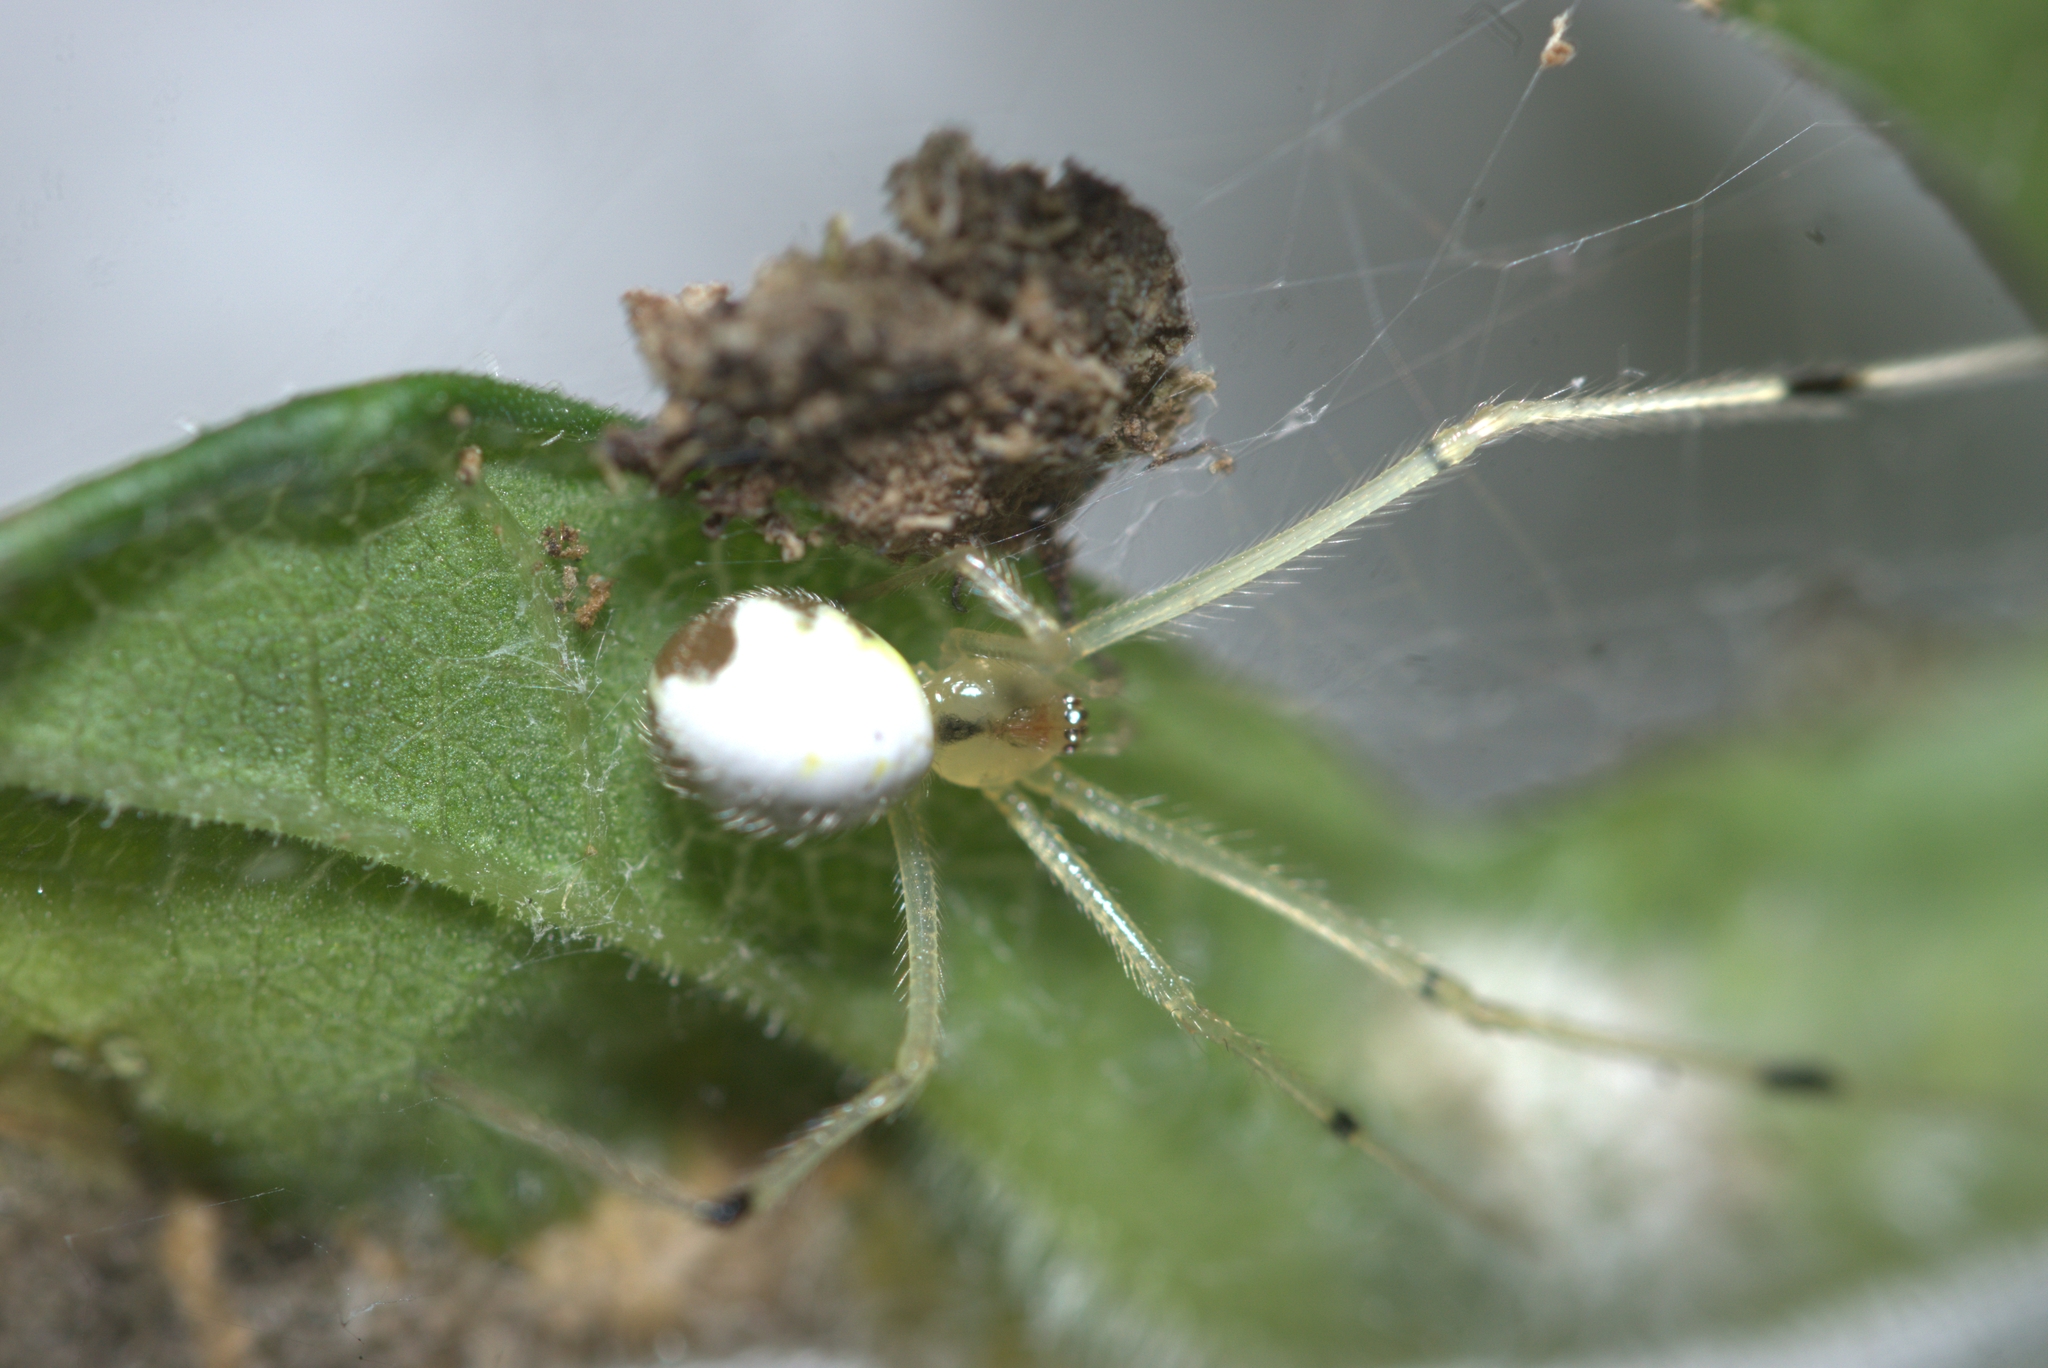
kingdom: Animalia
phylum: Arthropoda
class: Arachnida
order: Araneae
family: Theridiidae
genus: Theridion
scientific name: Theridion calcynatum
